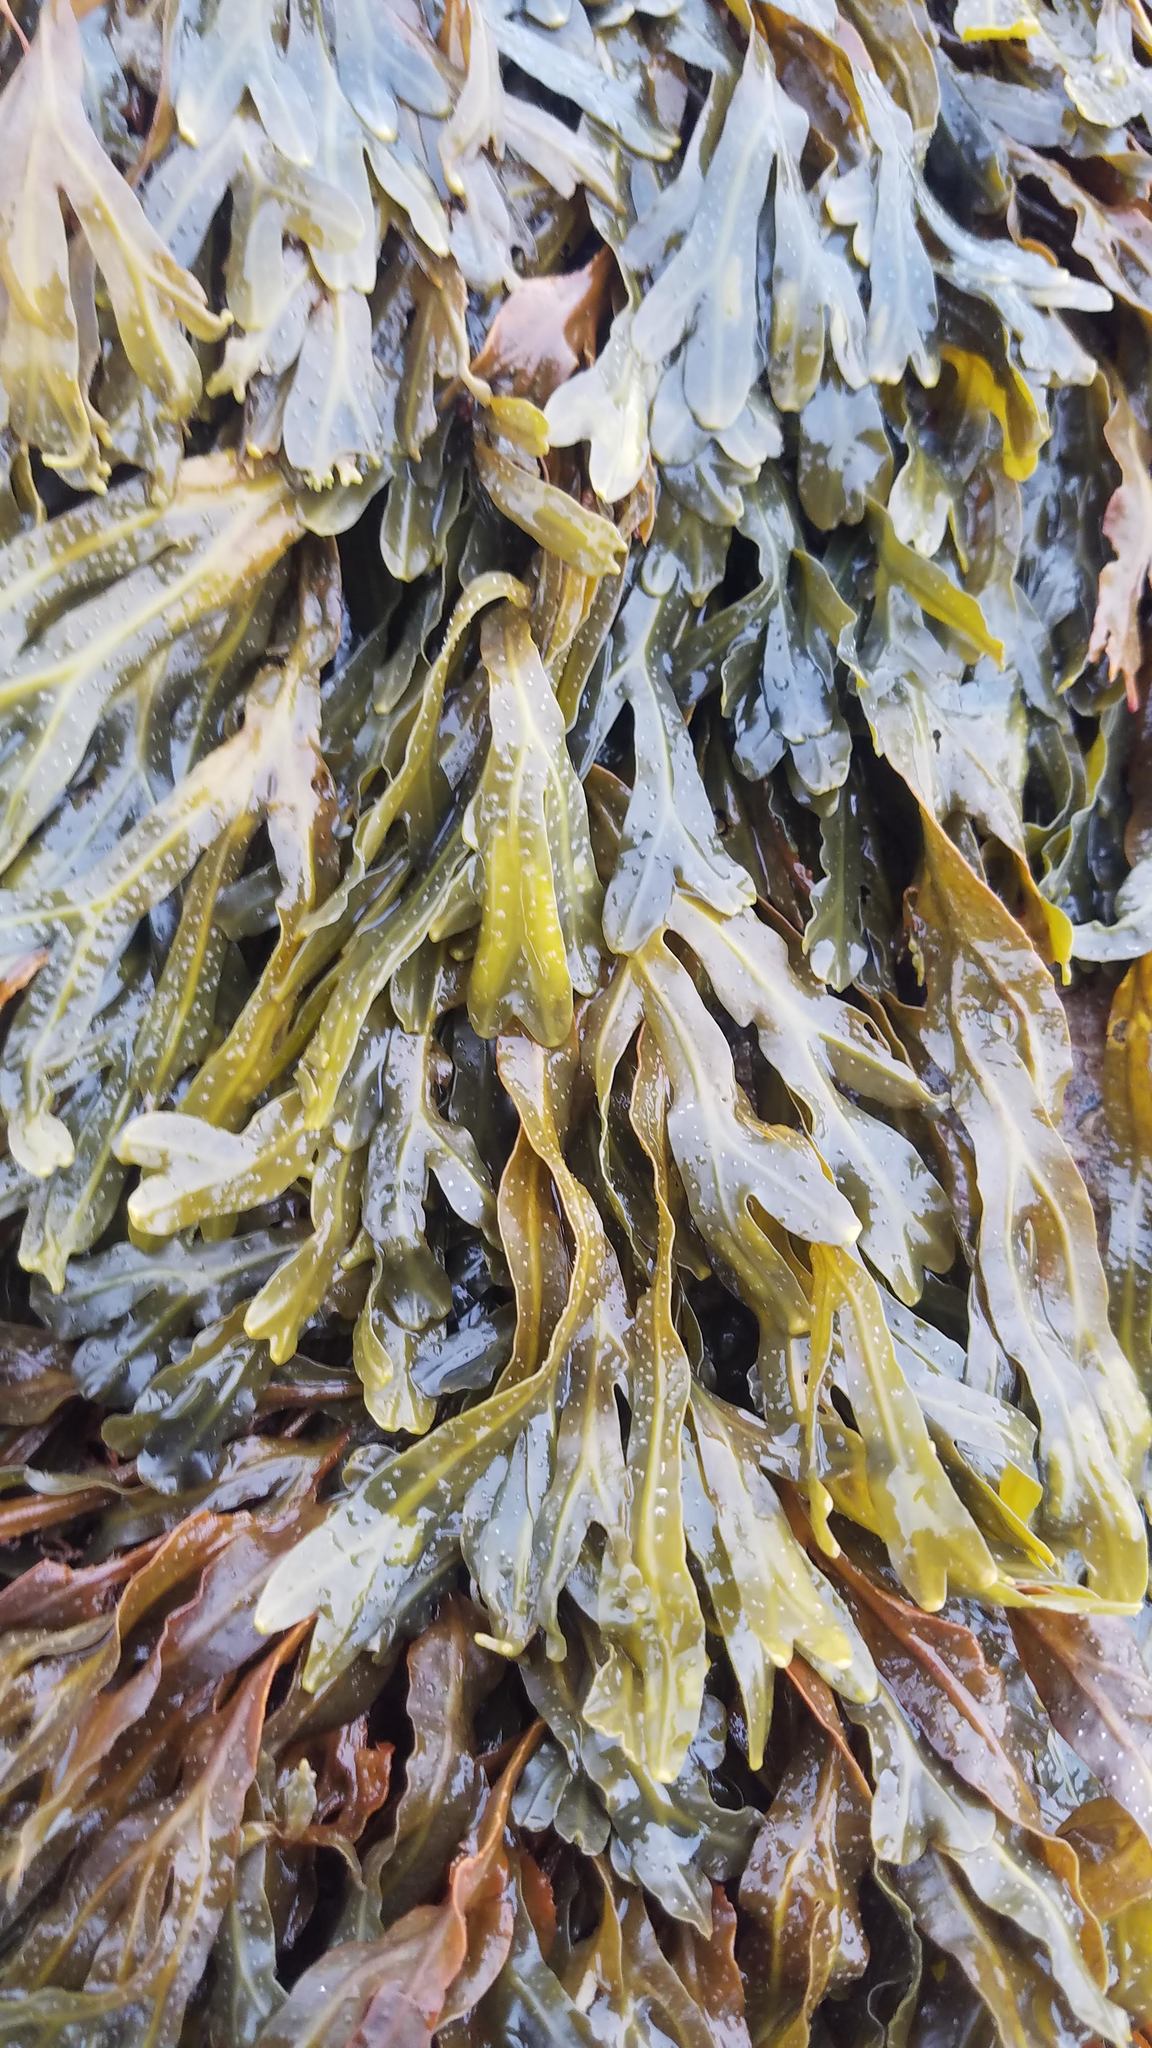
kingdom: Chromista
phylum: Ochrophyta
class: Phaeophyceae
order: Fucales
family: Fucaceae
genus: Fucus
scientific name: Fucus
